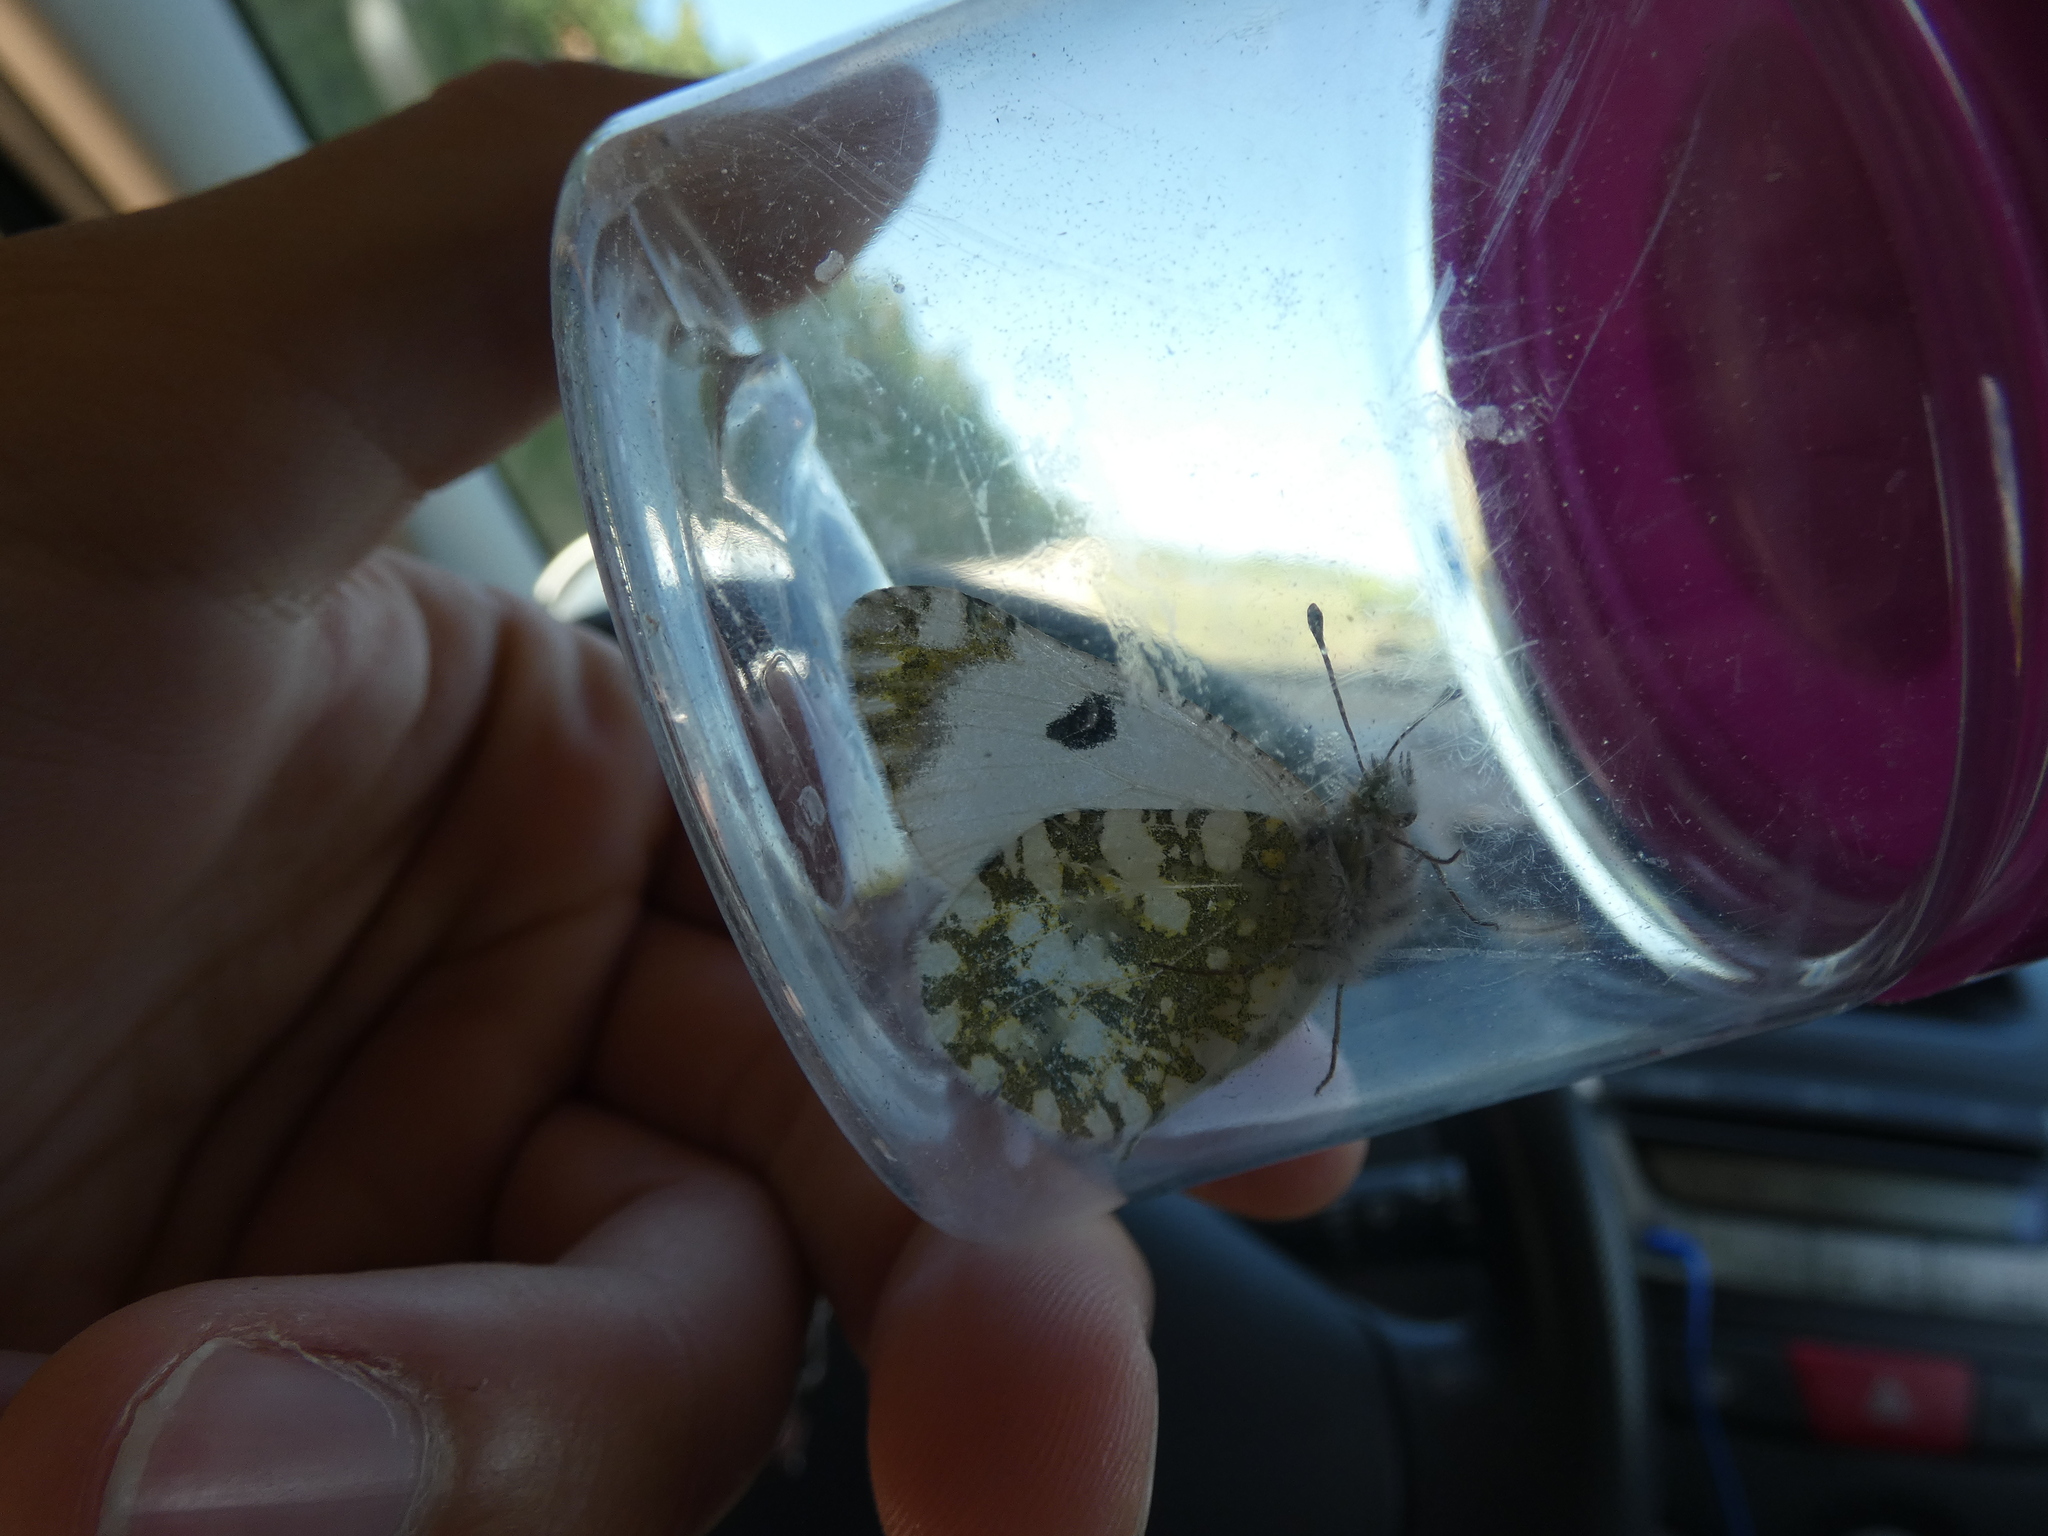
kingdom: Animalia
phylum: Arthropoda
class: Insecta
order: Lepidoptera
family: Pieridae
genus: Euchloe
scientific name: Euchloe crameri
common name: Western dappled white
